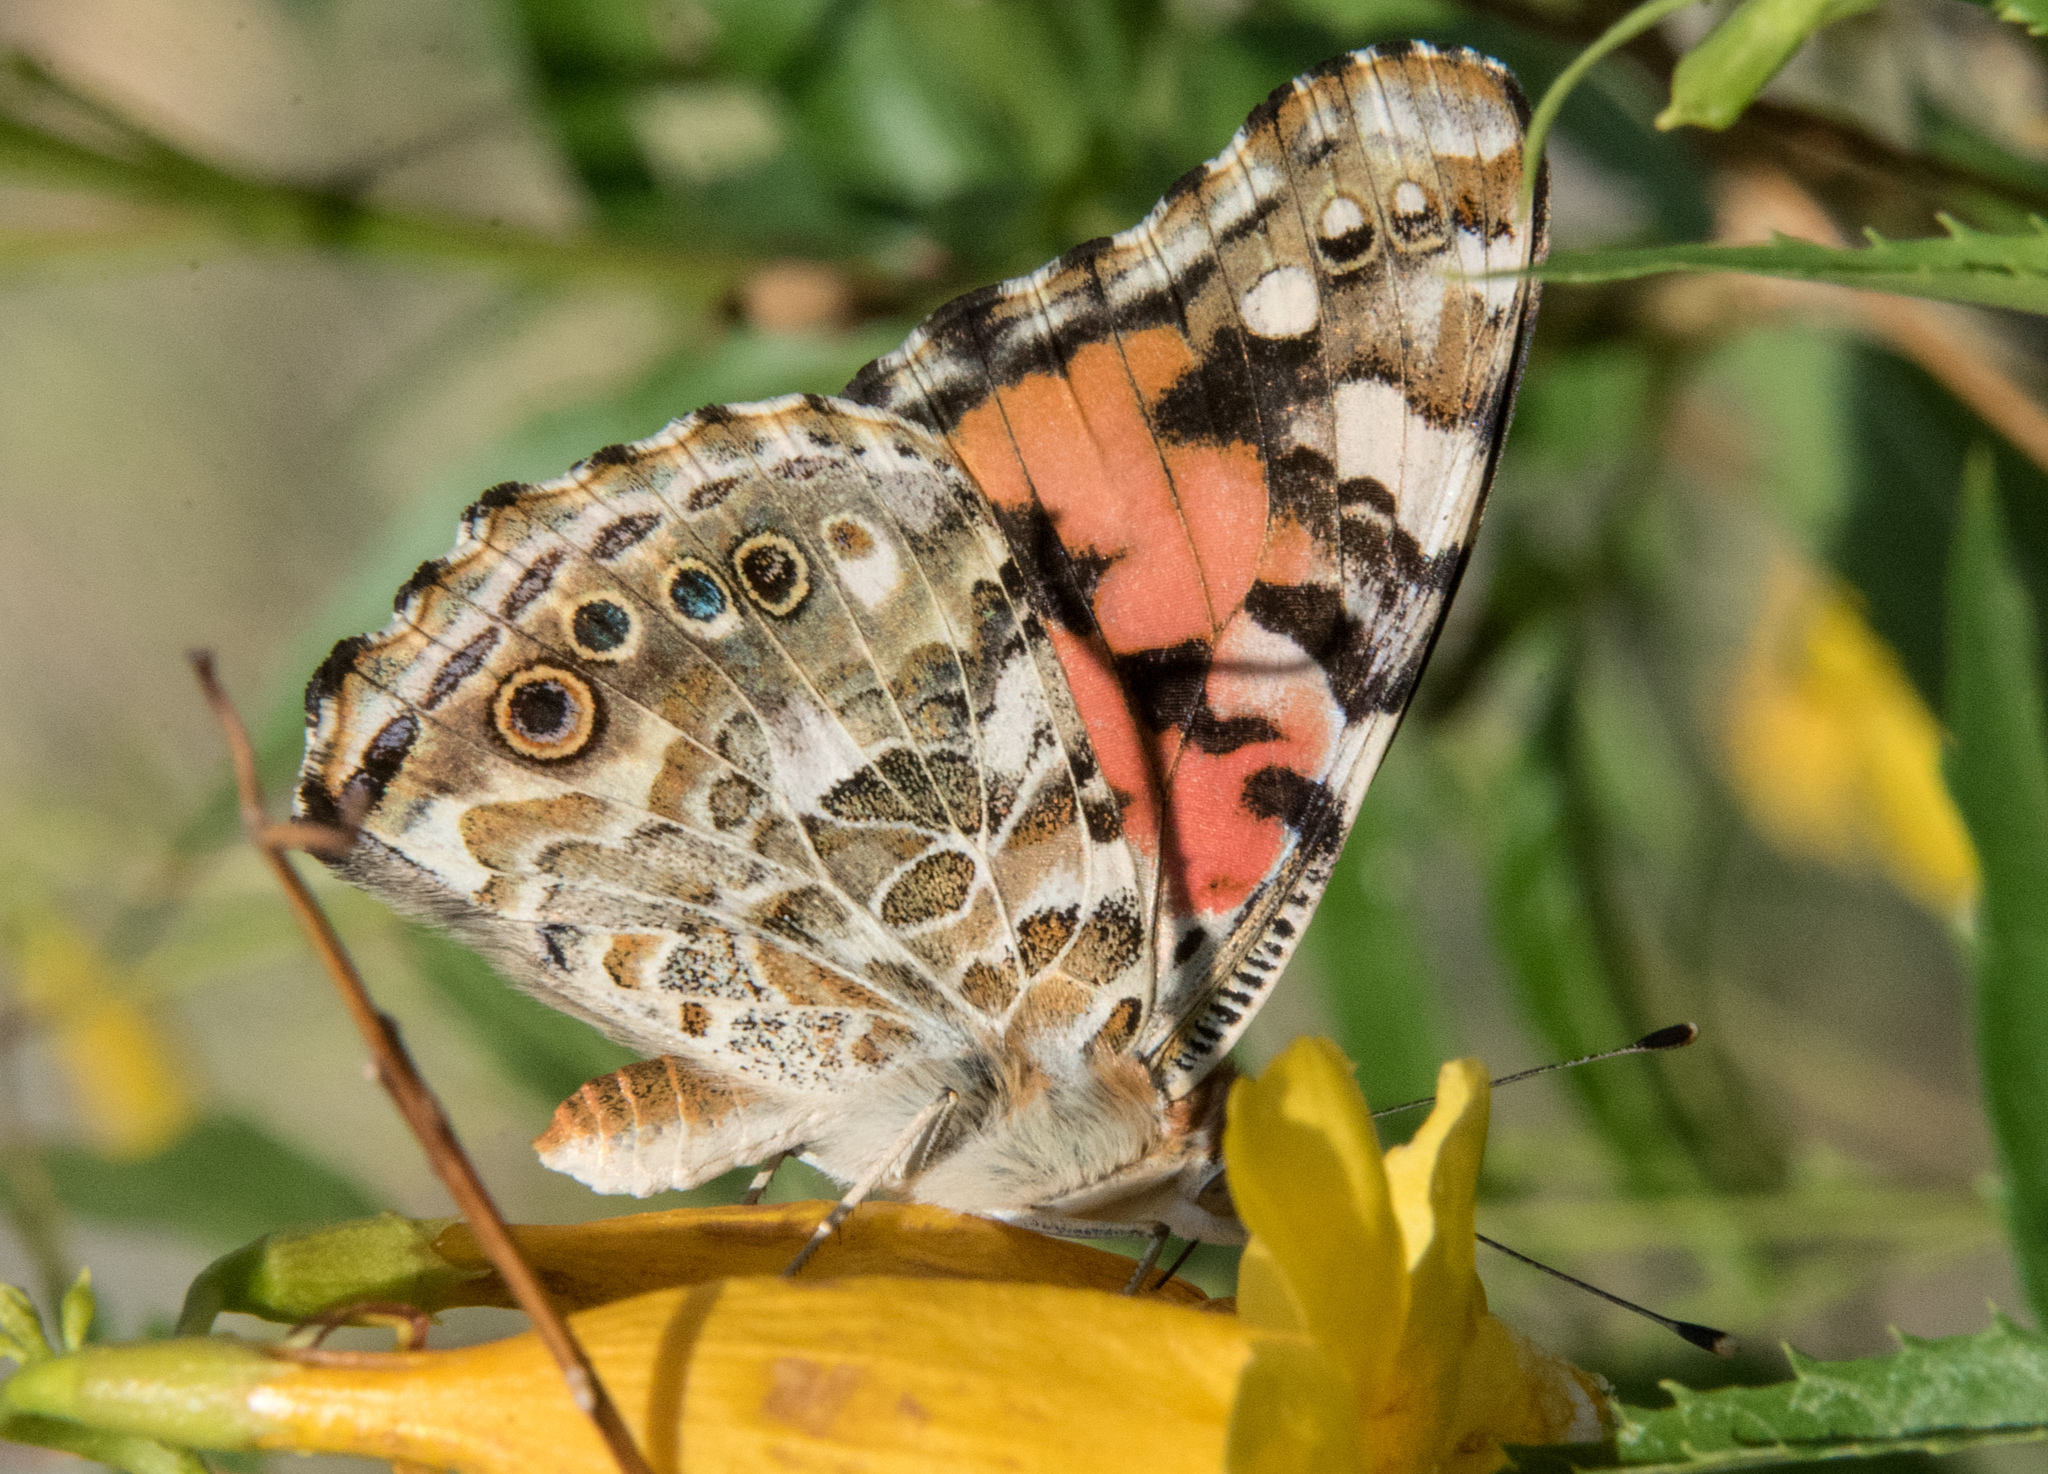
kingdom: Animalia
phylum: Arthropoda
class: Insecta
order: Lepidoptera
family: Nymphalidae
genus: Vanessa
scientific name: Vanessa cardui
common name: Painted lady
